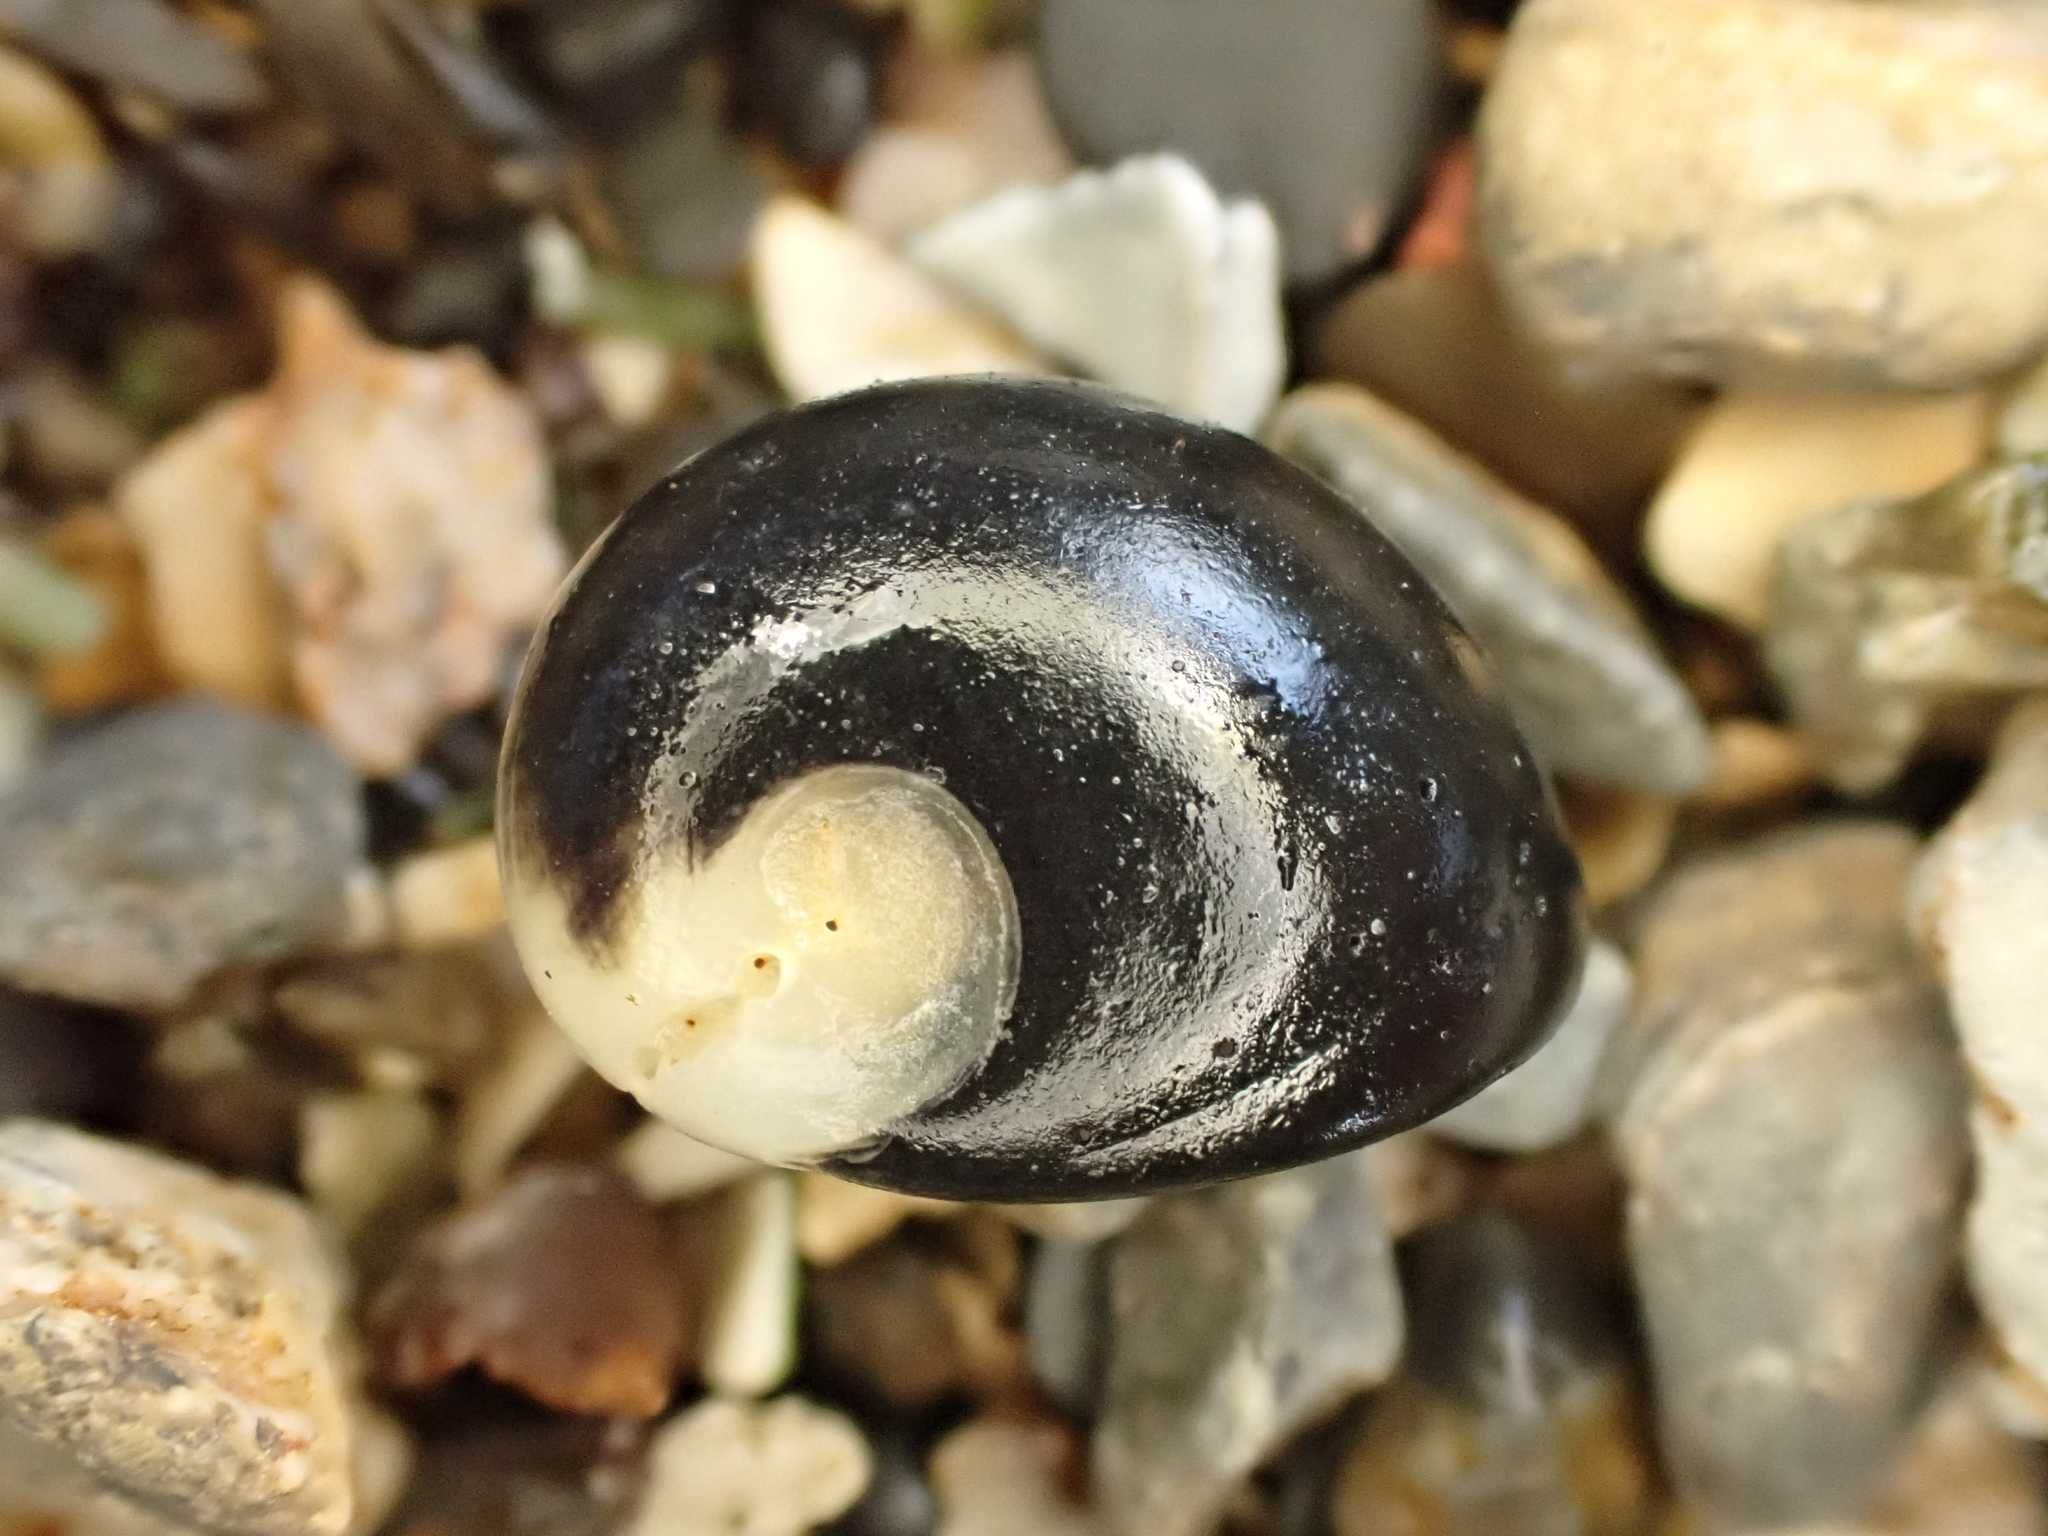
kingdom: Animalia
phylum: Mollusca
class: Gastropoda
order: Cycloneritida
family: Neritidae
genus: Nerita
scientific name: Nerita melanotragus
